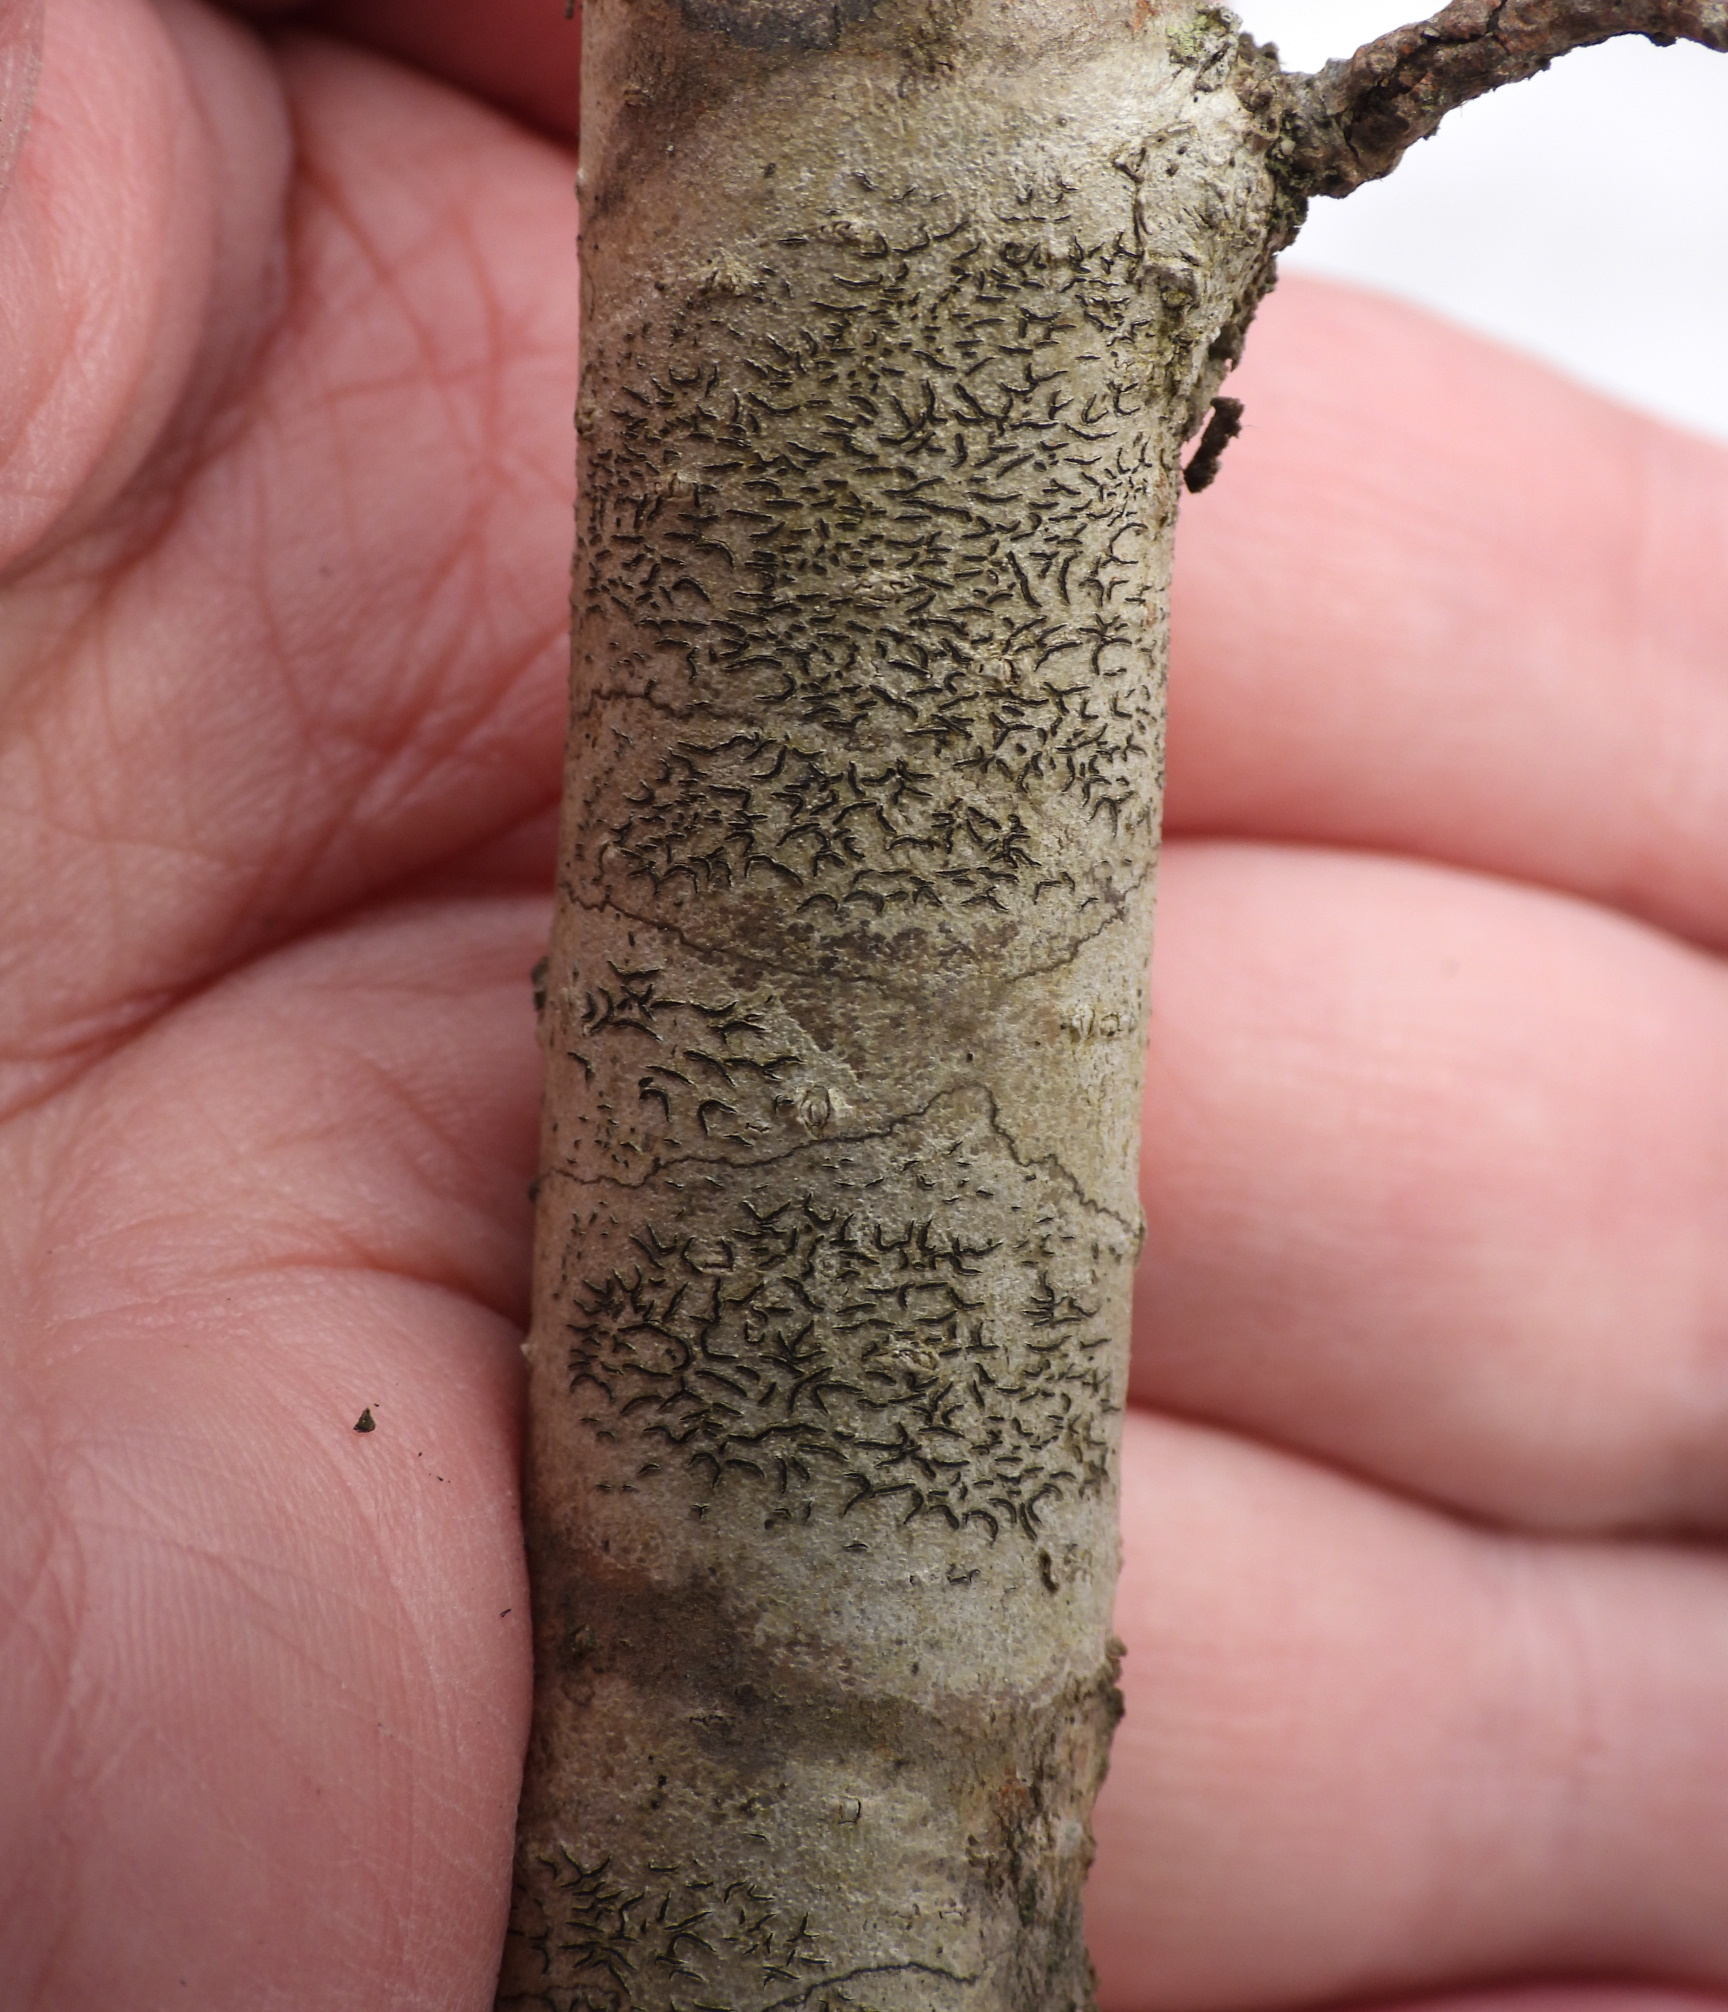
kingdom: Fungi
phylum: Ascomycota
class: Lecanoromycetes
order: Ostropales
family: Graphidaceae
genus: Graphis
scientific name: Graphis scripta
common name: Script lichen
